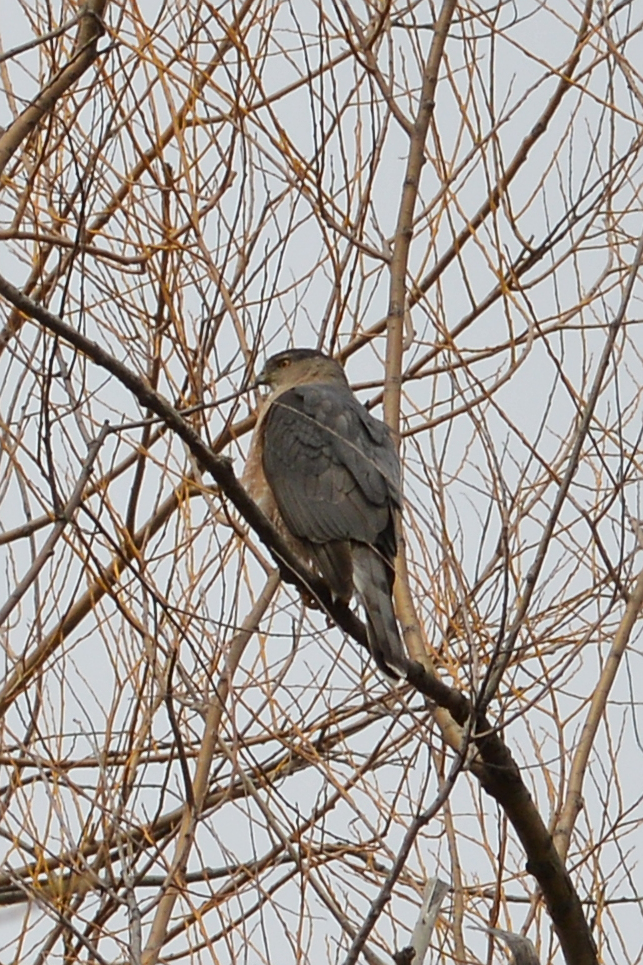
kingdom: Animalia
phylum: Chordata
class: Aves
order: Accipitriformes
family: Accipitridae
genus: Accipiter
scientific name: Accipiter cooperii
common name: Cooper's hawk
